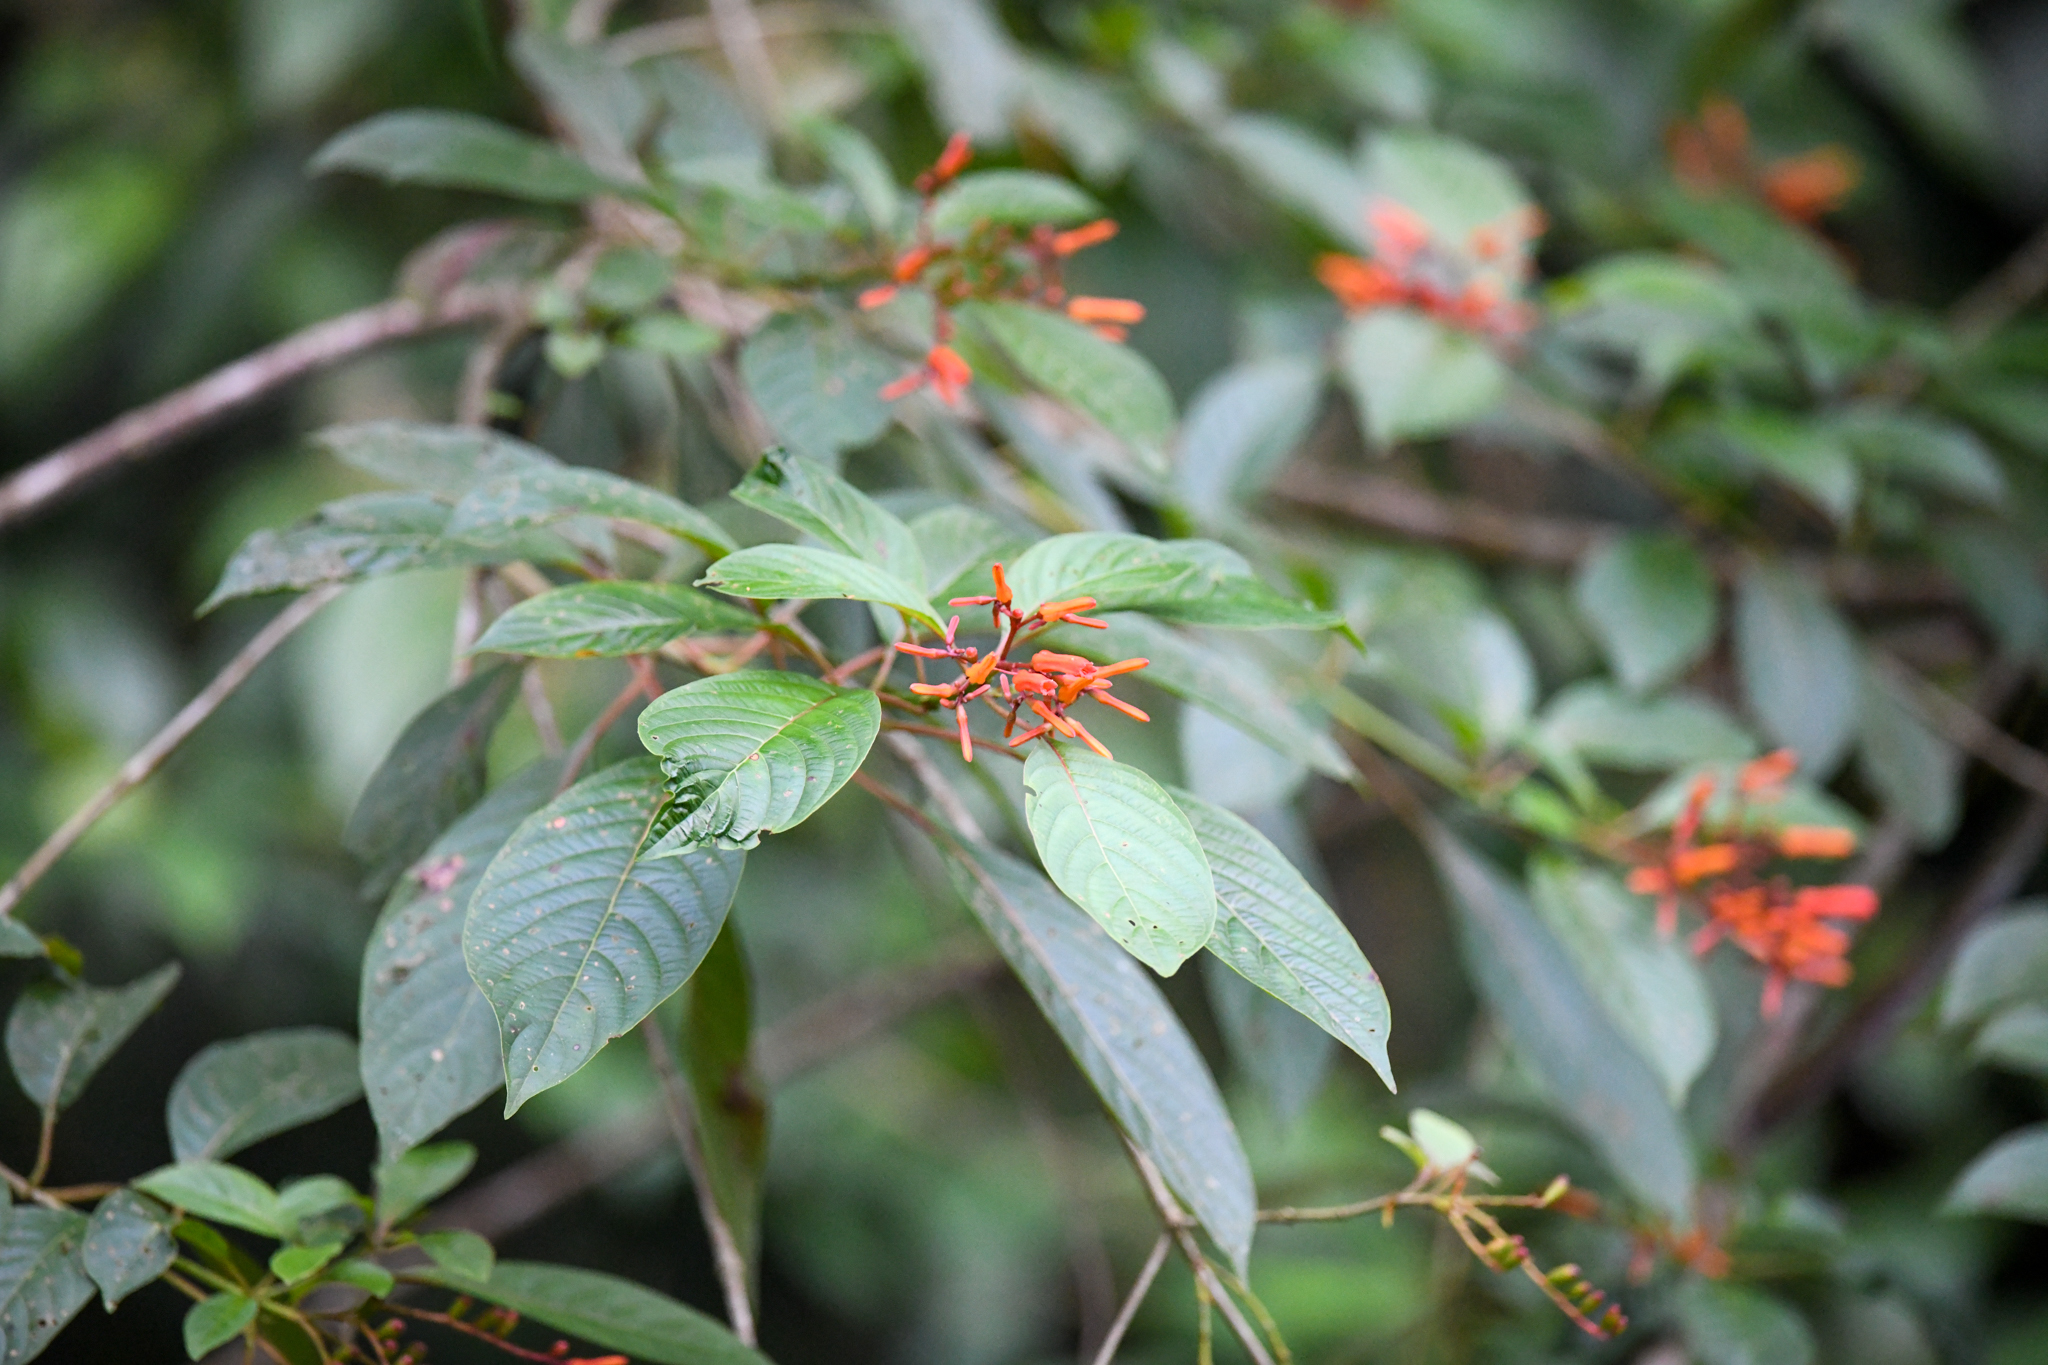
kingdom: Plantae
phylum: Tracheophyta
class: Magnoliopsida
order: Gentianales
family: Rubiaceae
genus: Hamelia
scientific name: Hamelia patens
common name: Redhead
